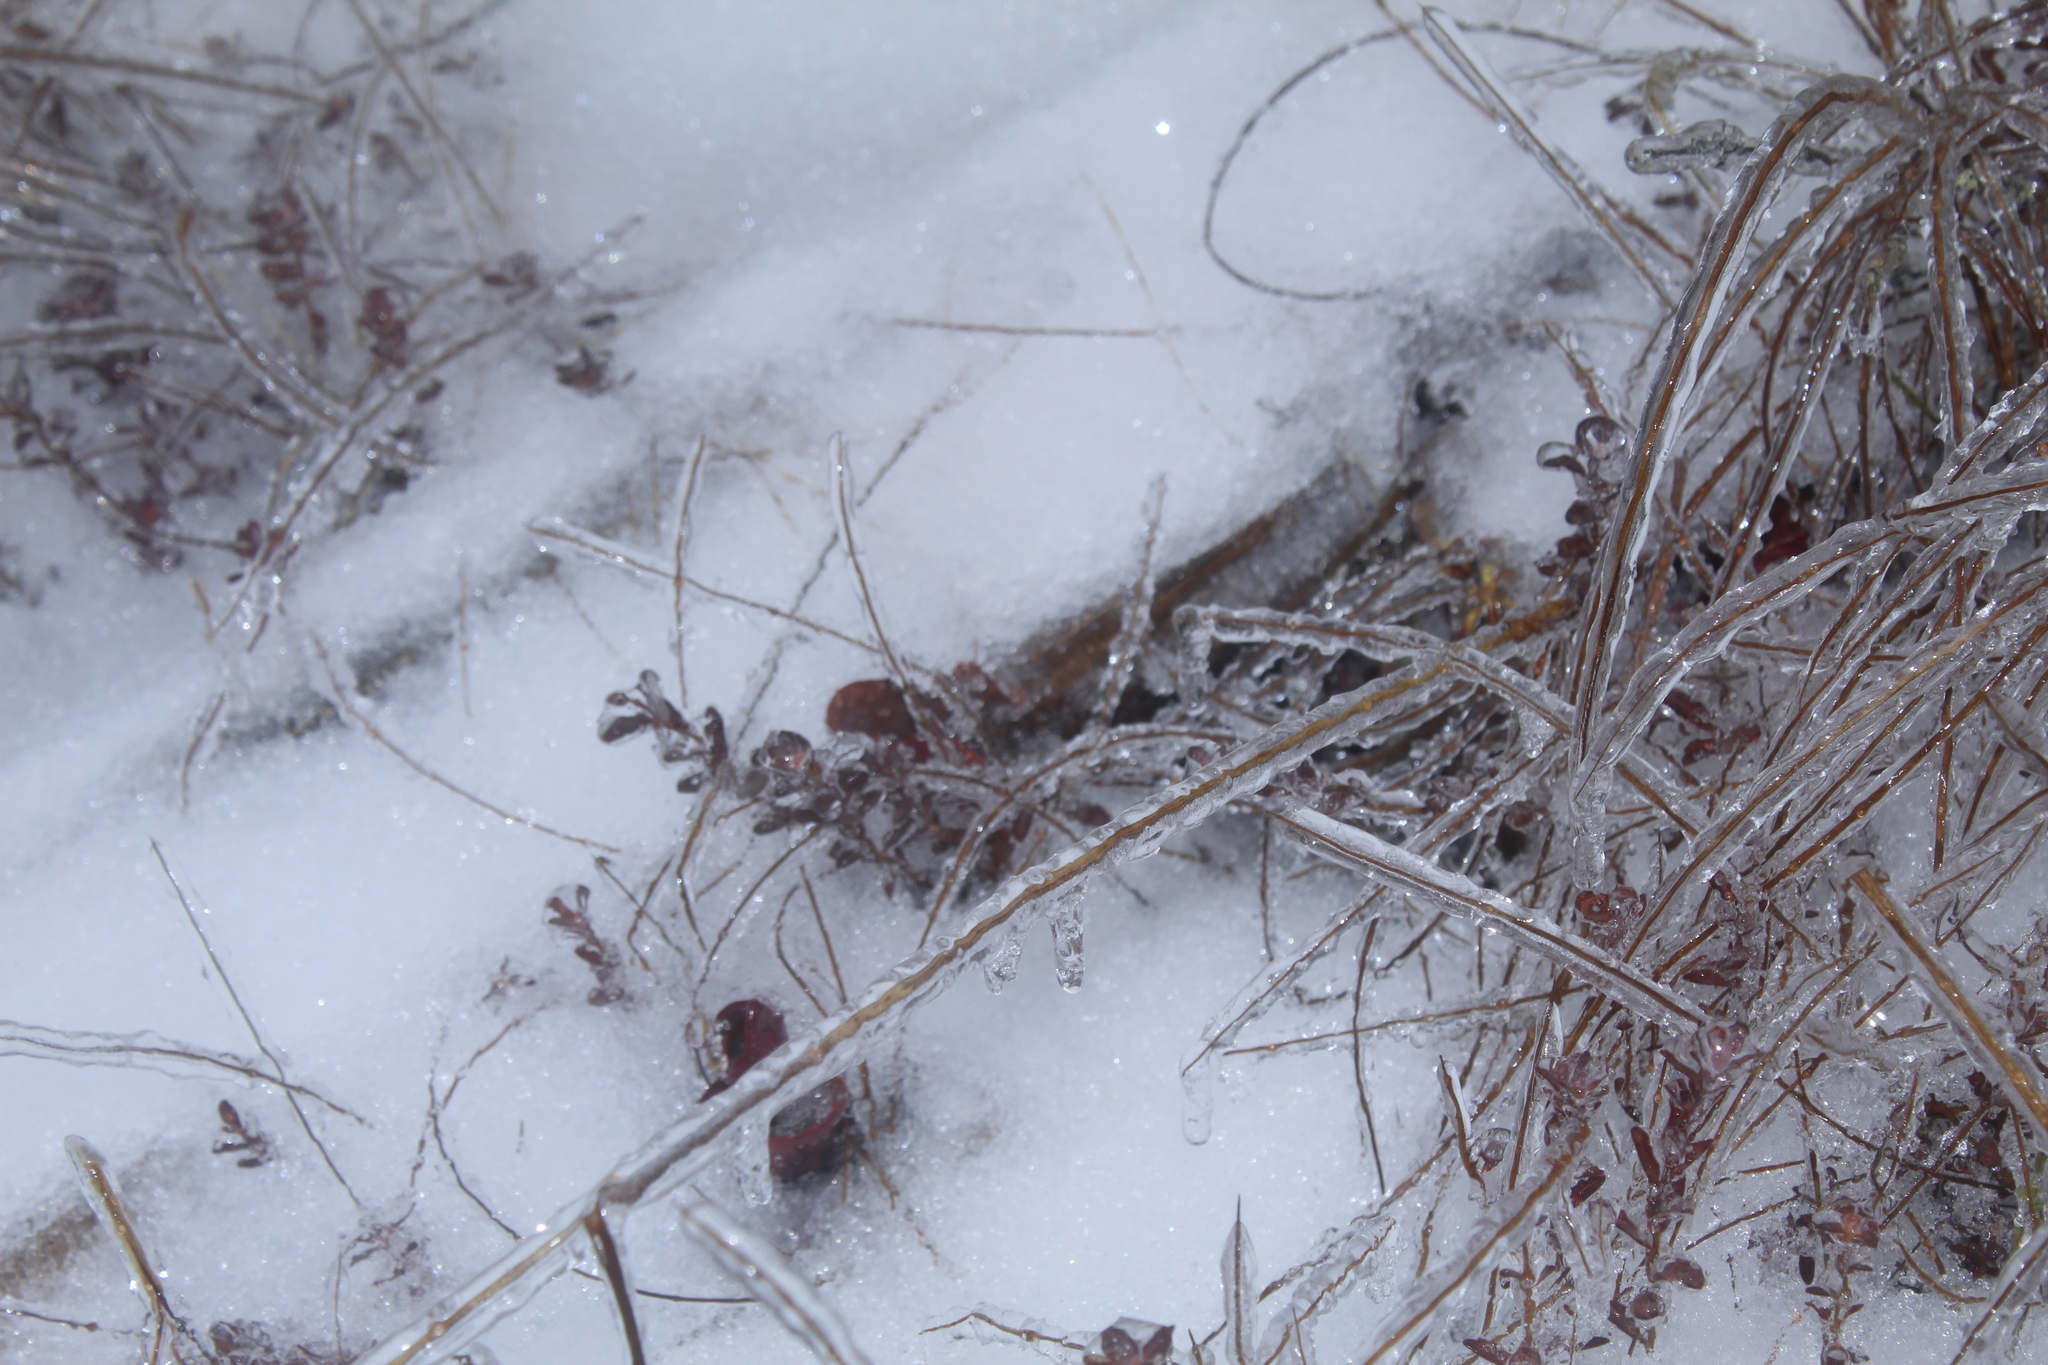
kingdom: Plantae
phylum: Tracheophyta
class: Magnoliopsida
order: Ericales
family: Sarraceniaceae
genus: Sarracenia
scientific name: Sarracenia purpurea
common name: Pitcherplant
